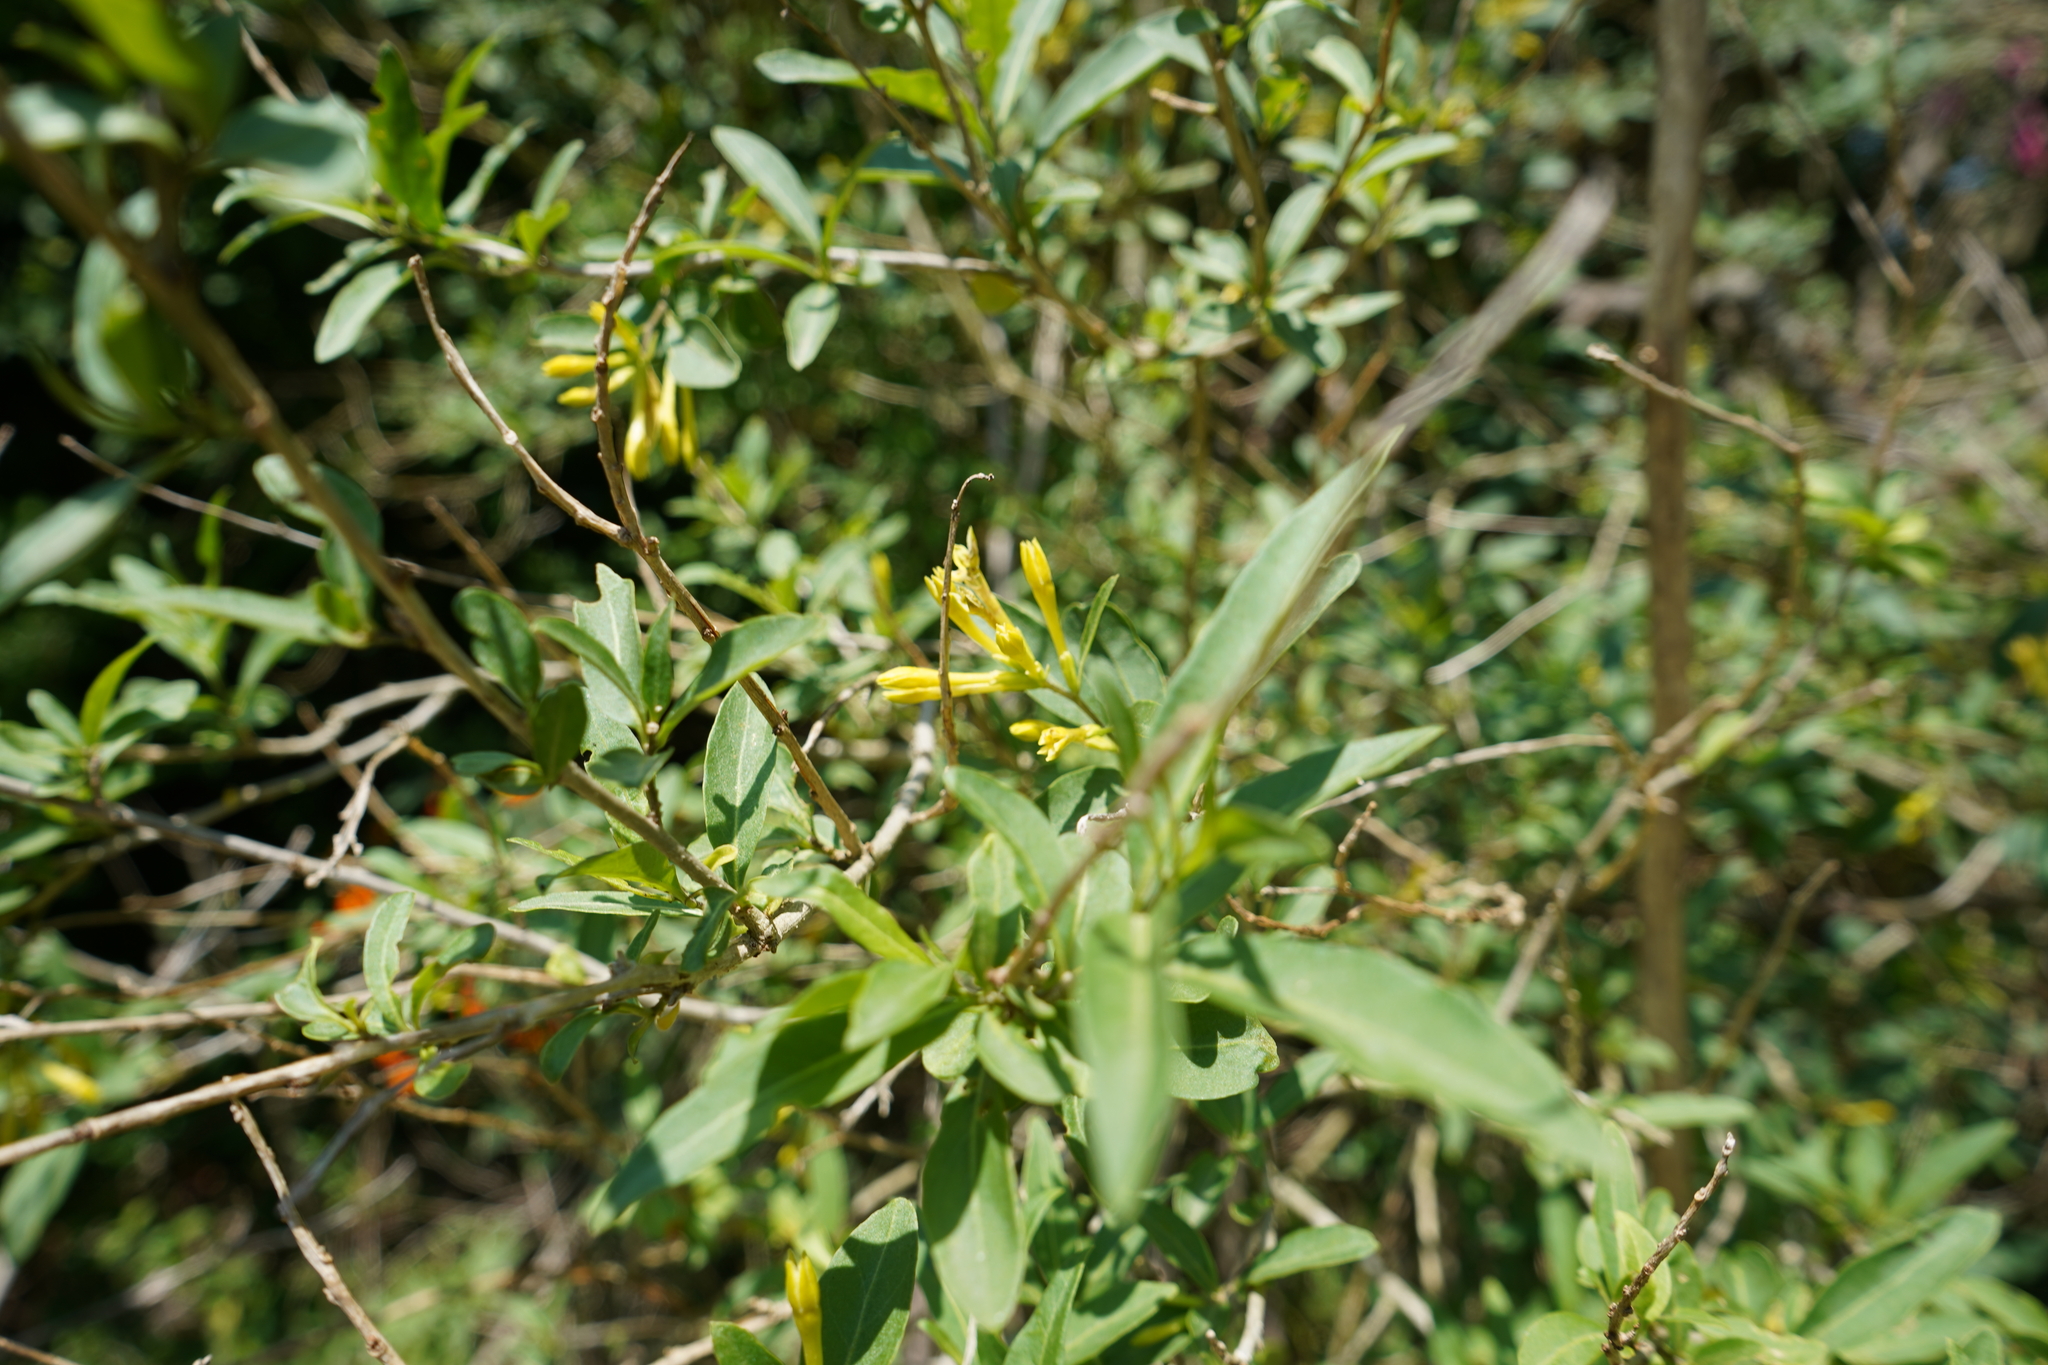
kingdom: Plantae
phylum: Tracheophyta
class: Magnoliopsida
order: Solanales
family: Solanaceae
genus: Cestrum
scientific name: Cestrum parqui
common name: Chilean cestrum
